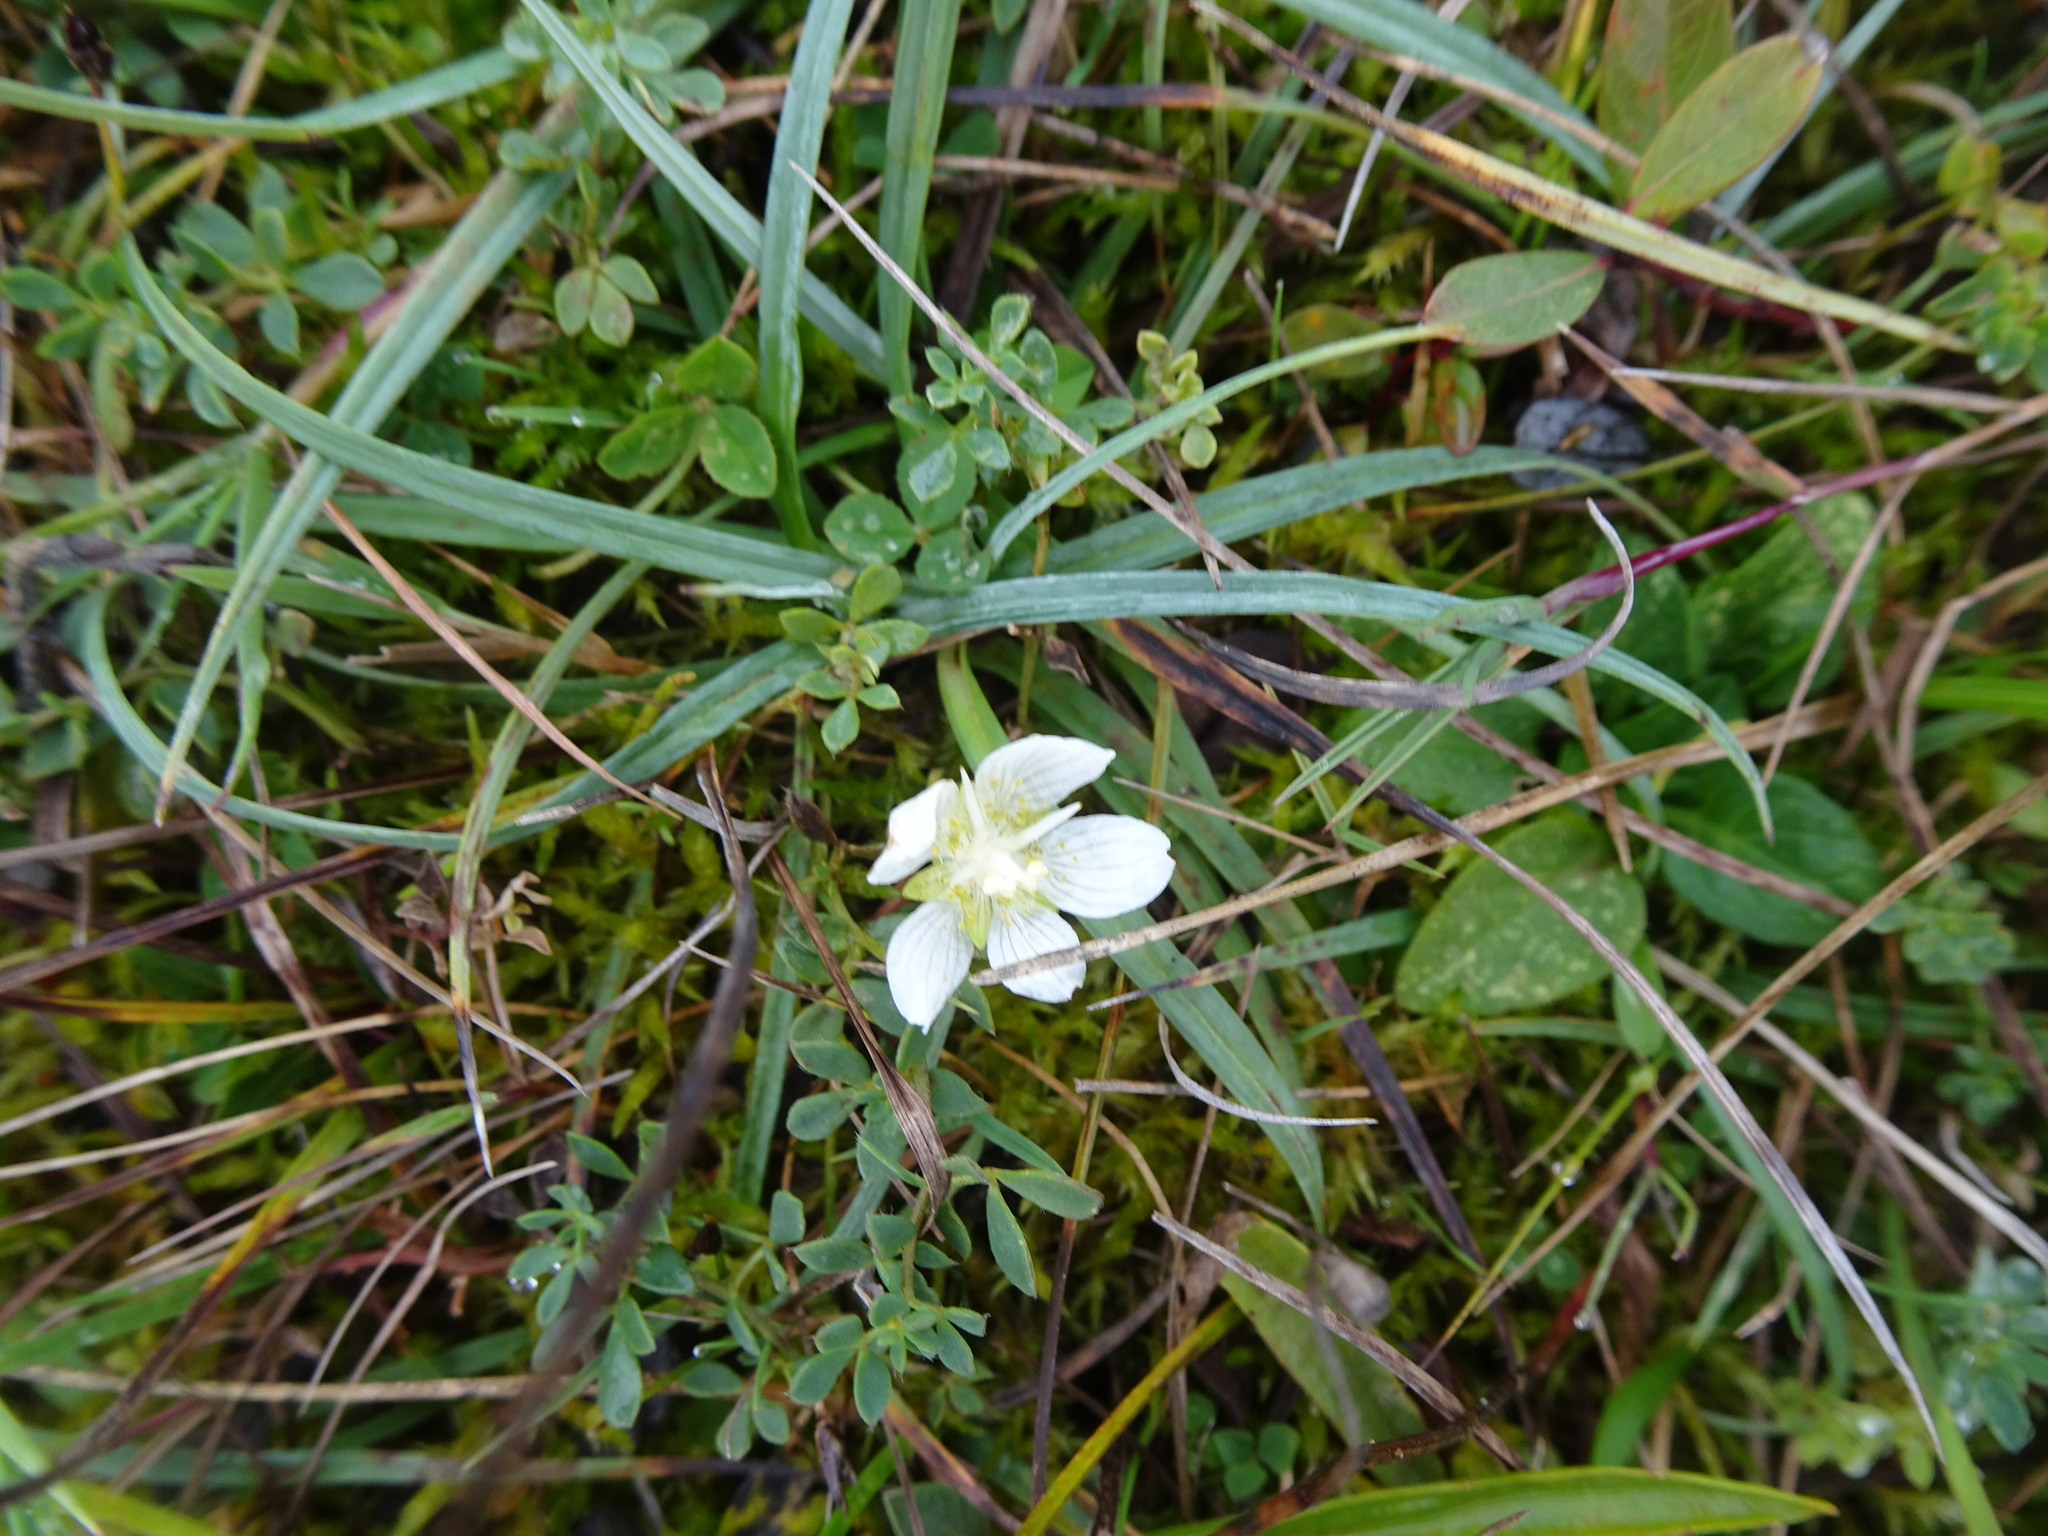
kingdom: Plantae
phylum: Tracheophyta
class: Magnoliopsida
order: Celastrales
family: Parnassiaceae
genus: Parnassia
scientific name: Parnassia palustris
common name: Grass-of-parnassus
